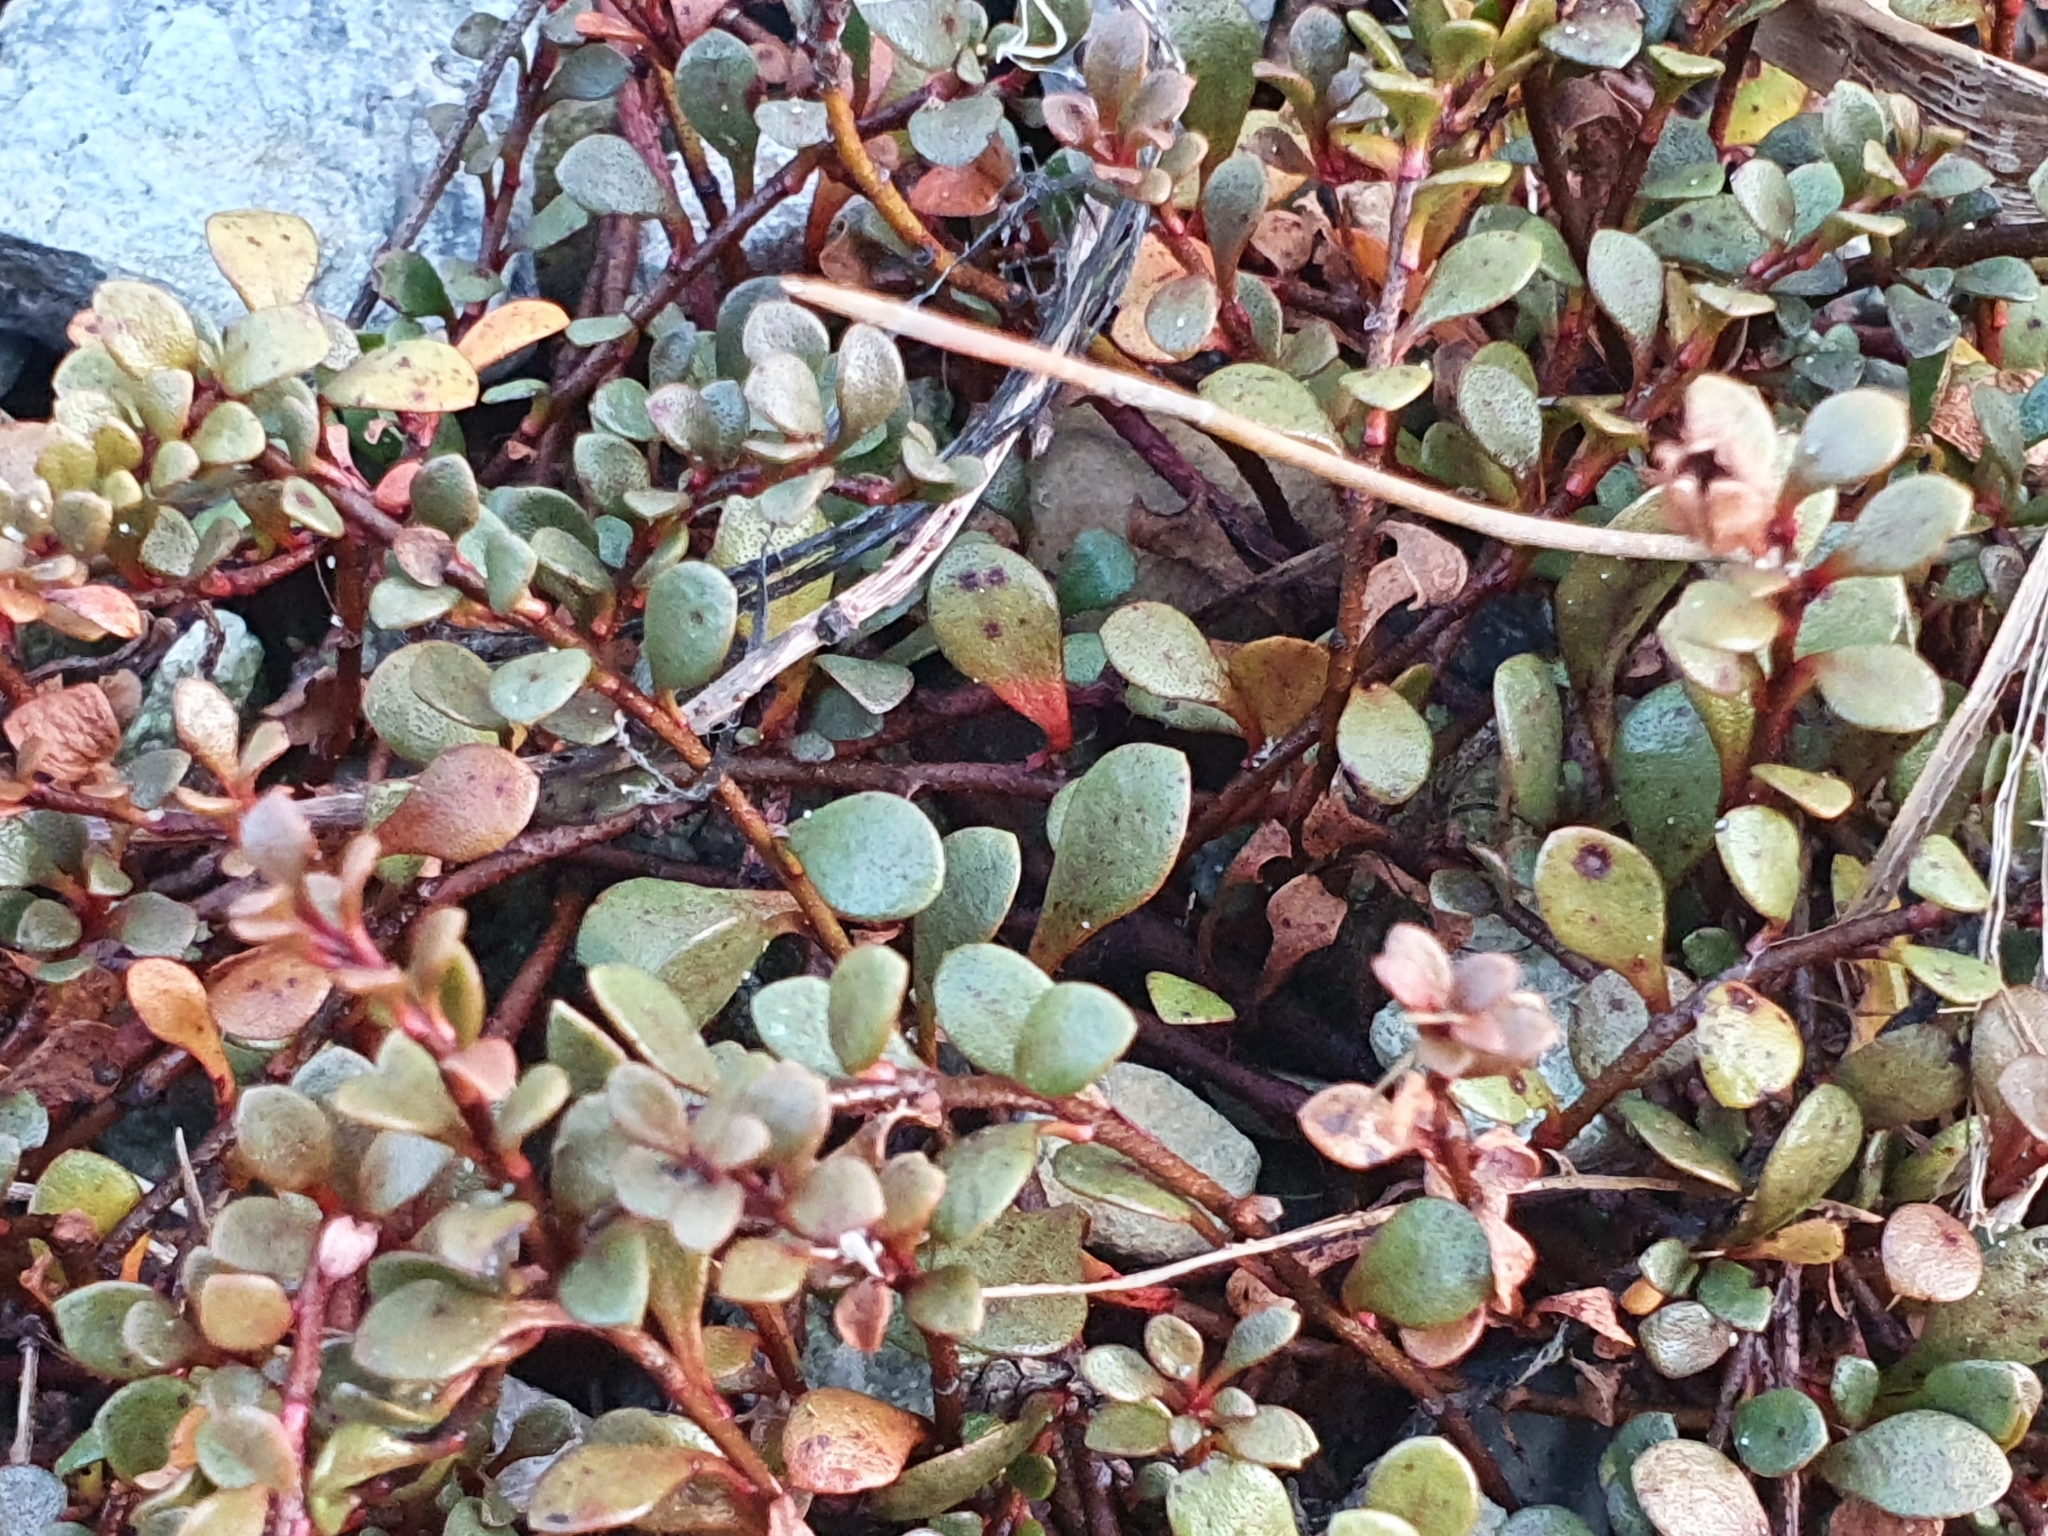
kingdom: Plantae
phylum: Tracheophyta
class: Magnoliopsida
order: Ericales
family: Primulaceae
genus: Samolus
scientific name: Samolus repens
